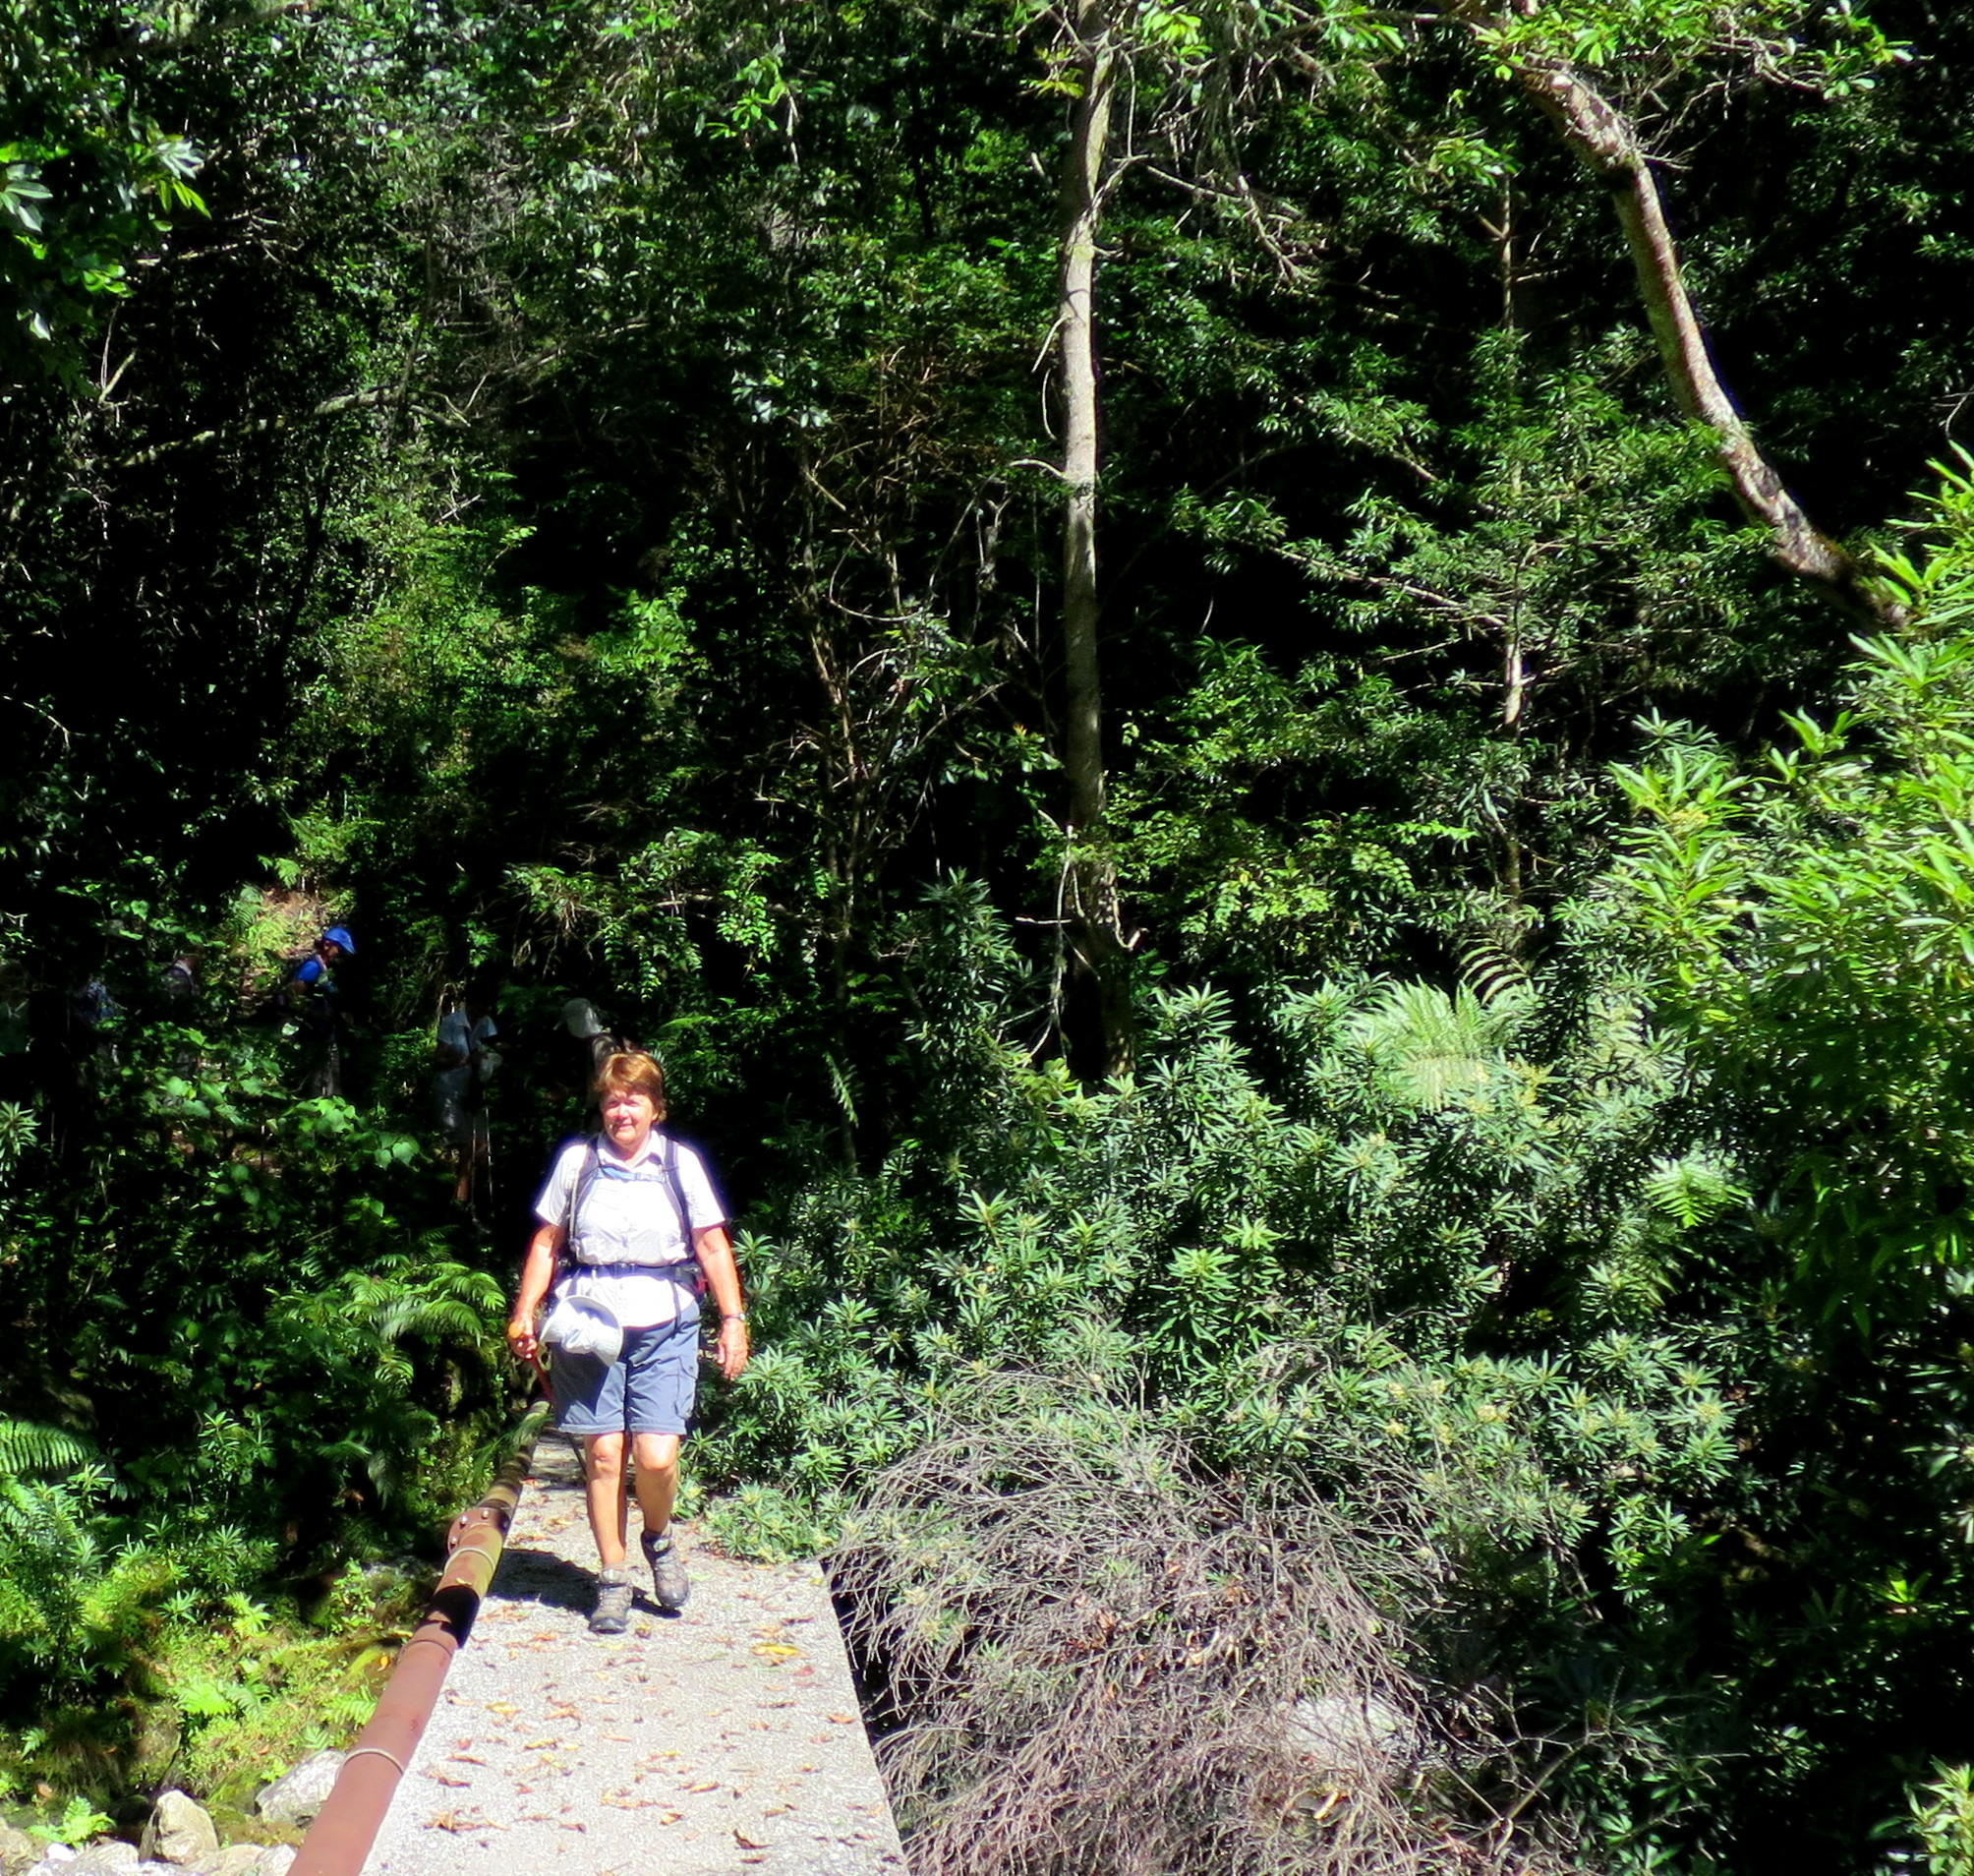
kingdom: Plantae
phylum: Tracheophyta
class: Magnoliopsida
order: Asterales
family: Asteraceae
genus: Brachylaena
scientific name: Brachylaena neriifolia
